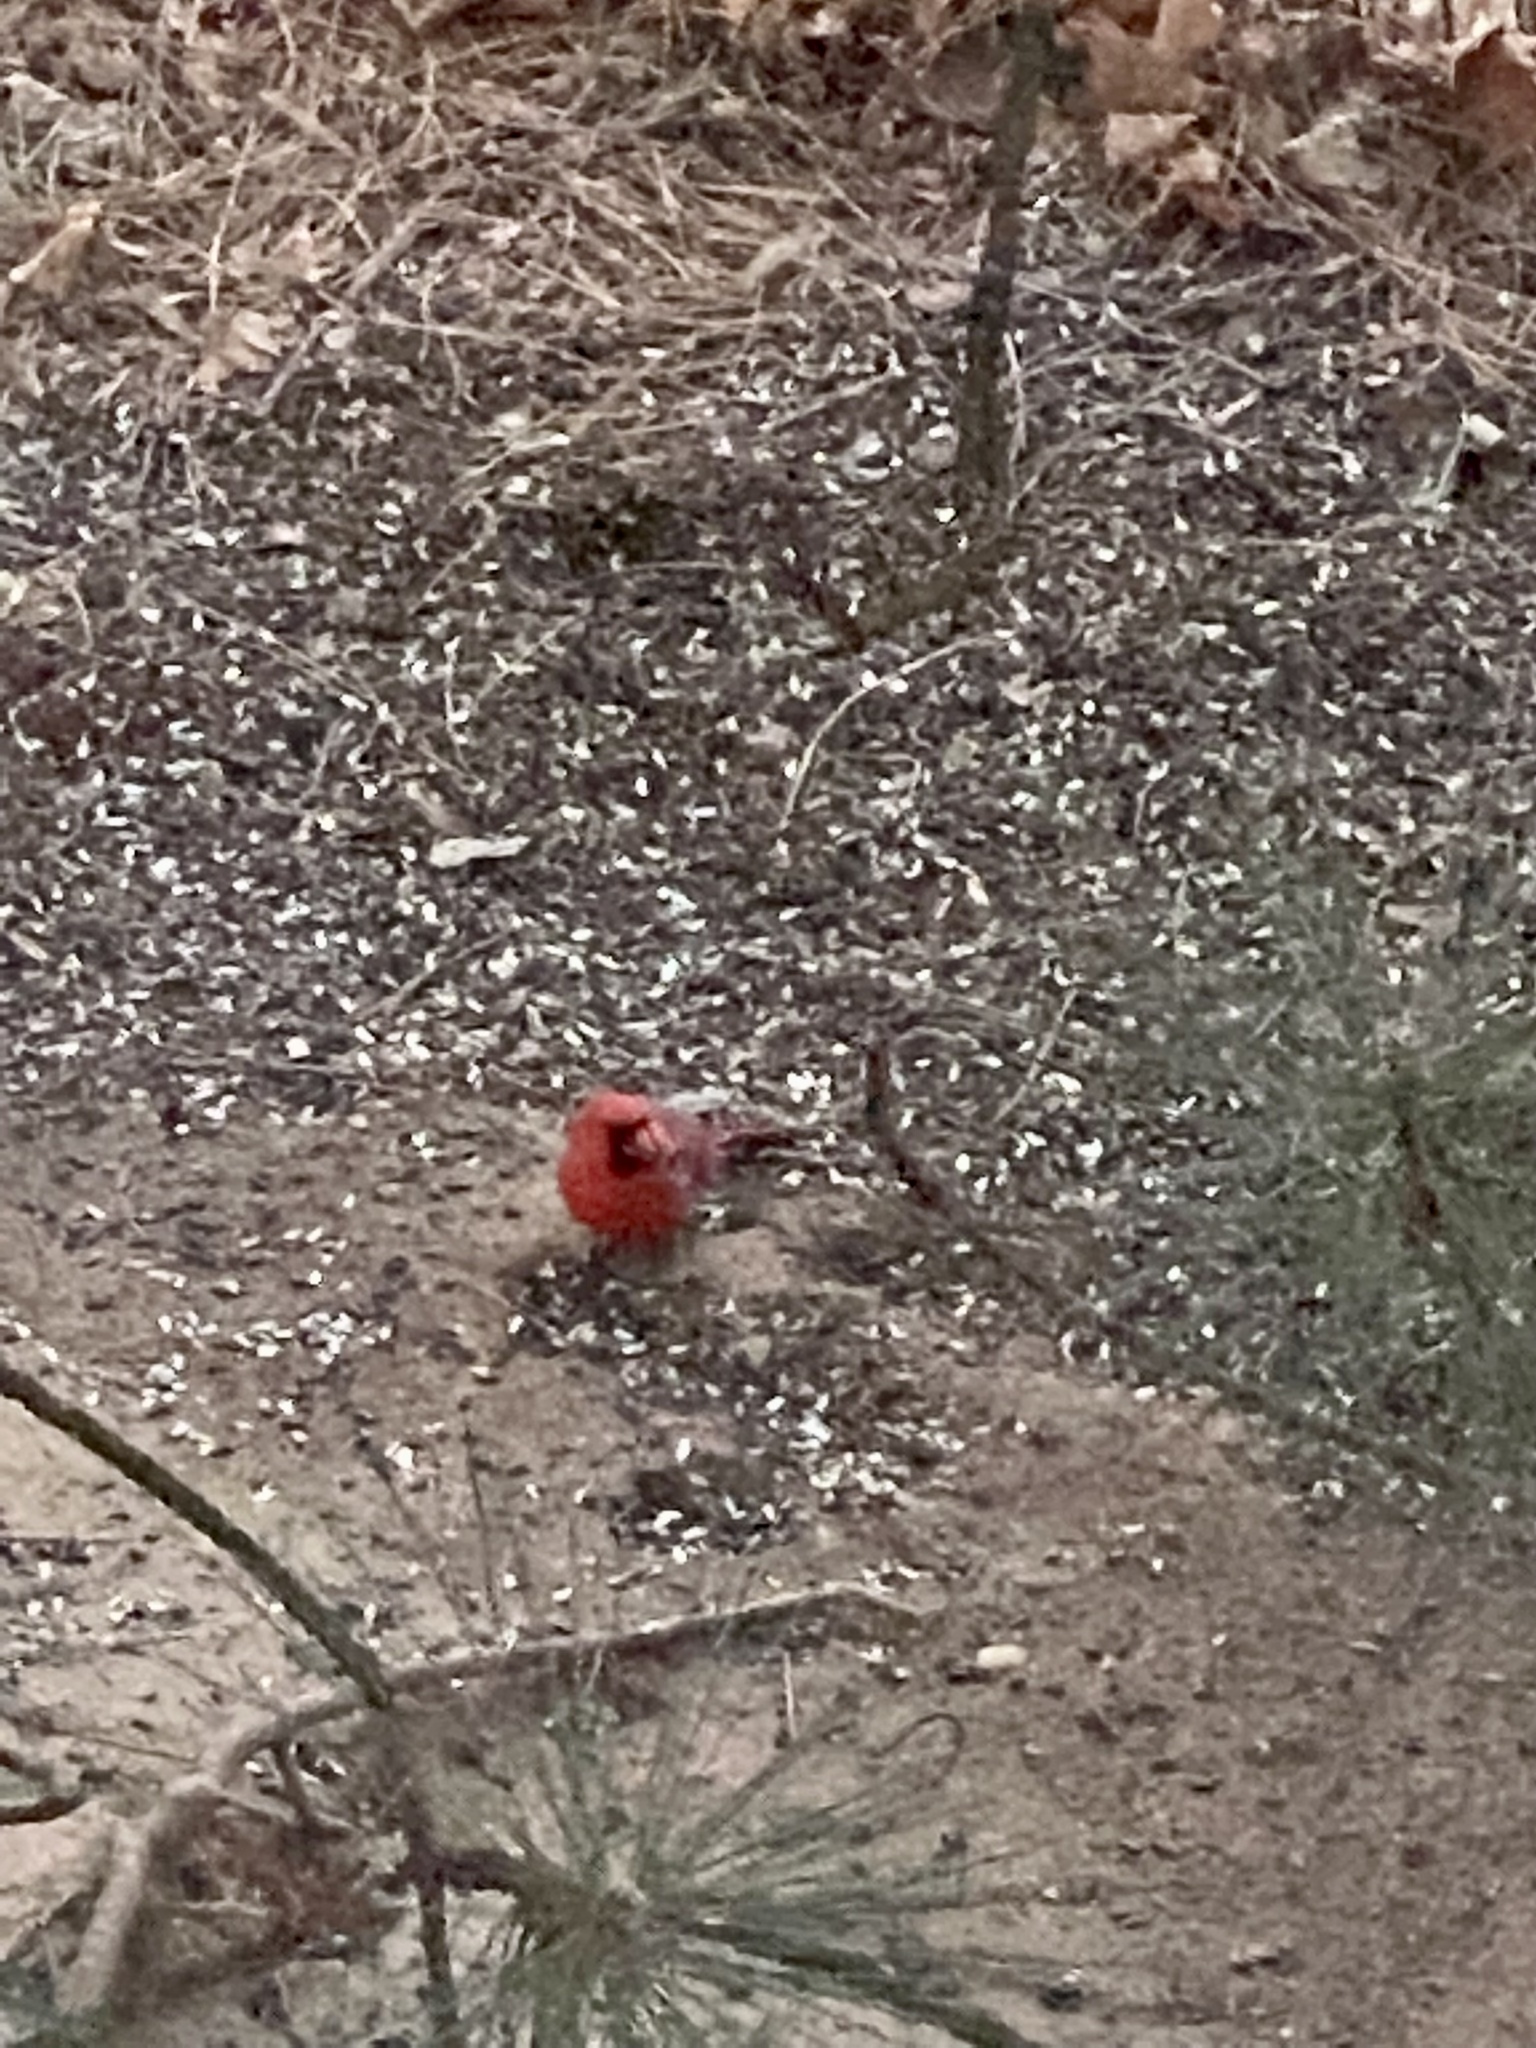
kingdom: Animalia
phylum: Chordata
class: Aves
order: Passeriformes
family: Cardinalidae
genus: Cardinalis
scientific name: Cardinalis cardinalis
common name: Northern cardinal
